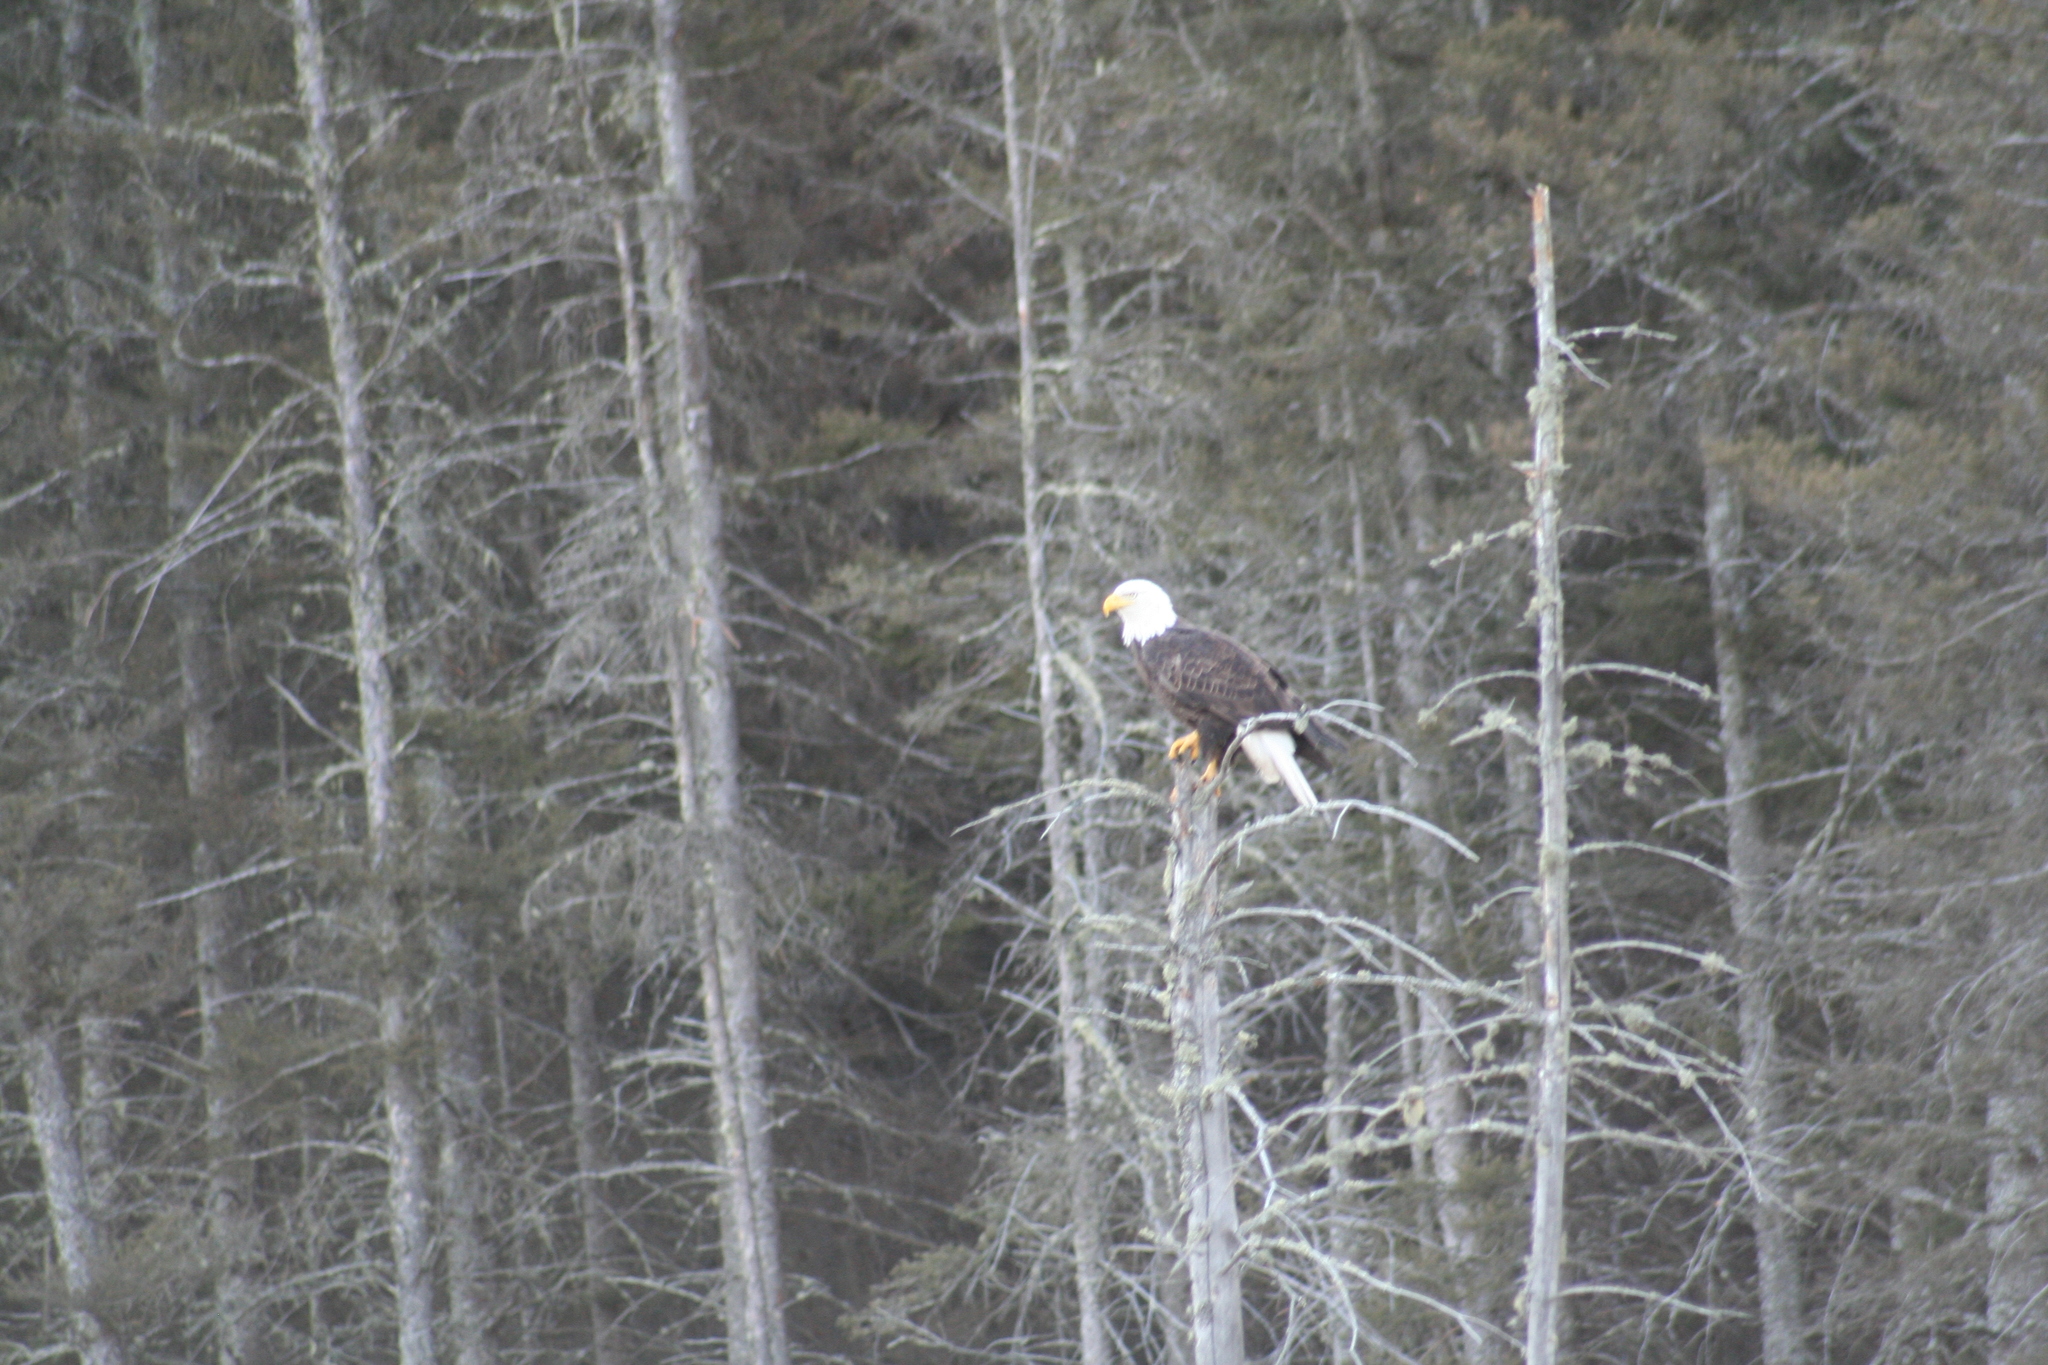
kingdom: Animalia
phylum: Chordata
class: Aves
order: Accipitriformes
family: Accipitridae
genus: Haliaeetus
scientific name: Haliaeetus leucocephalus
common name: Bald eagle
